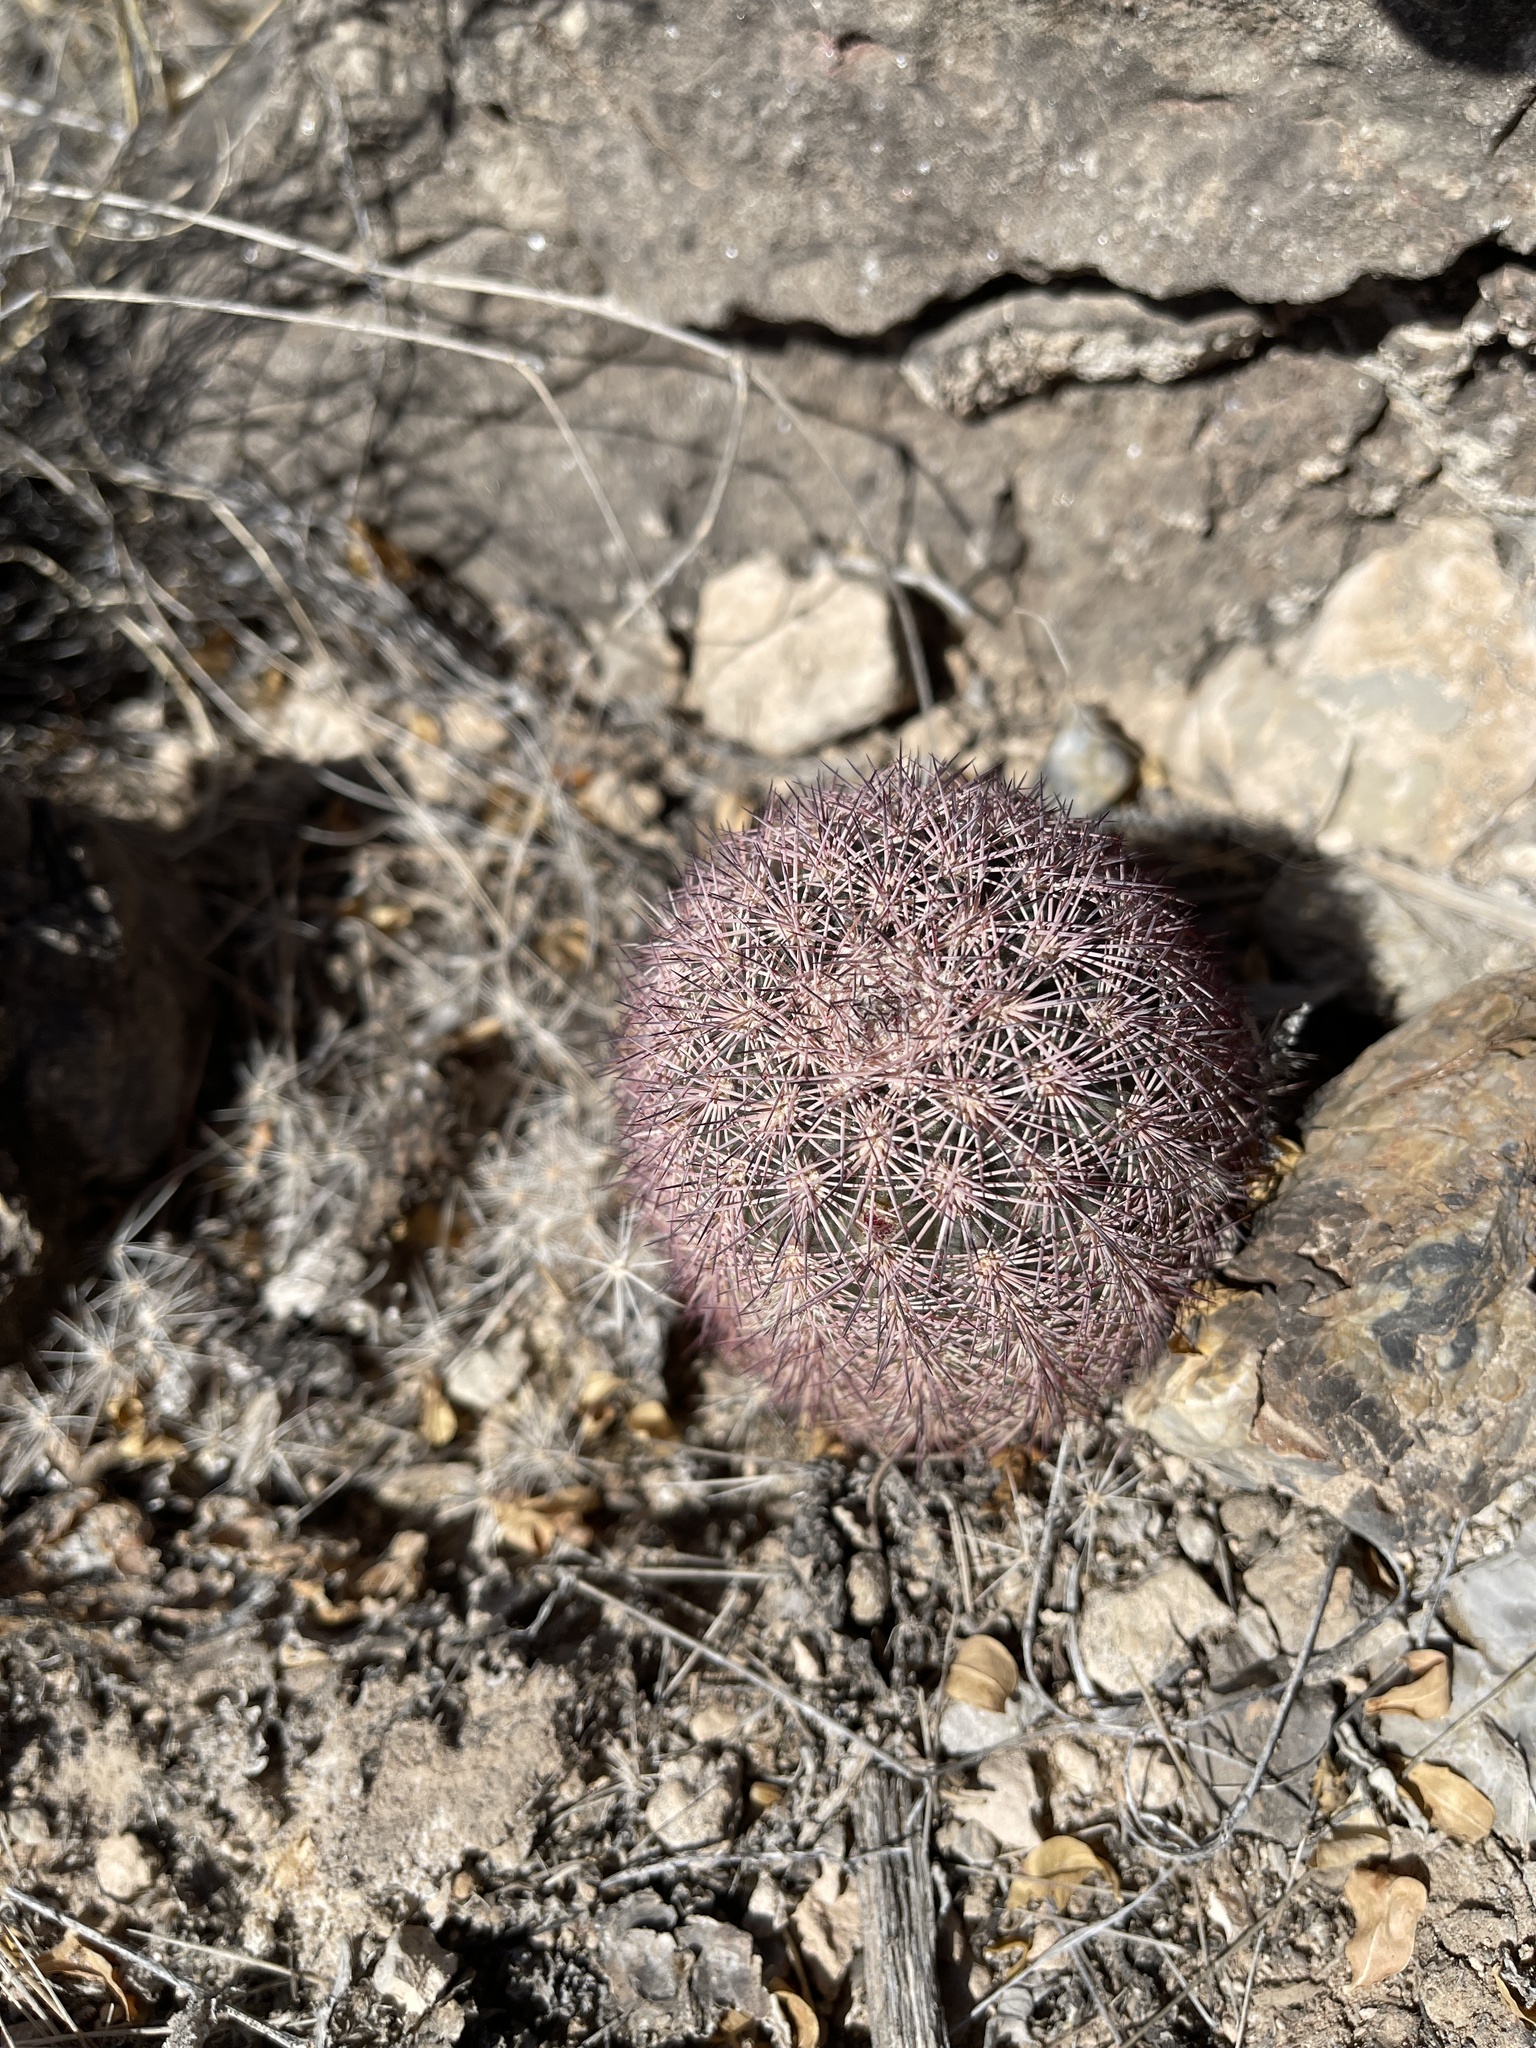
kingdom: Plantae
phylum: Tracheophyta
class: Magnoliopsida
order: Caryophyllales
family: Cactaceae
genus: Echinocereus
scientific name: Echinocereus dasyacanthus
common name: Spiny hedgehog cactus
